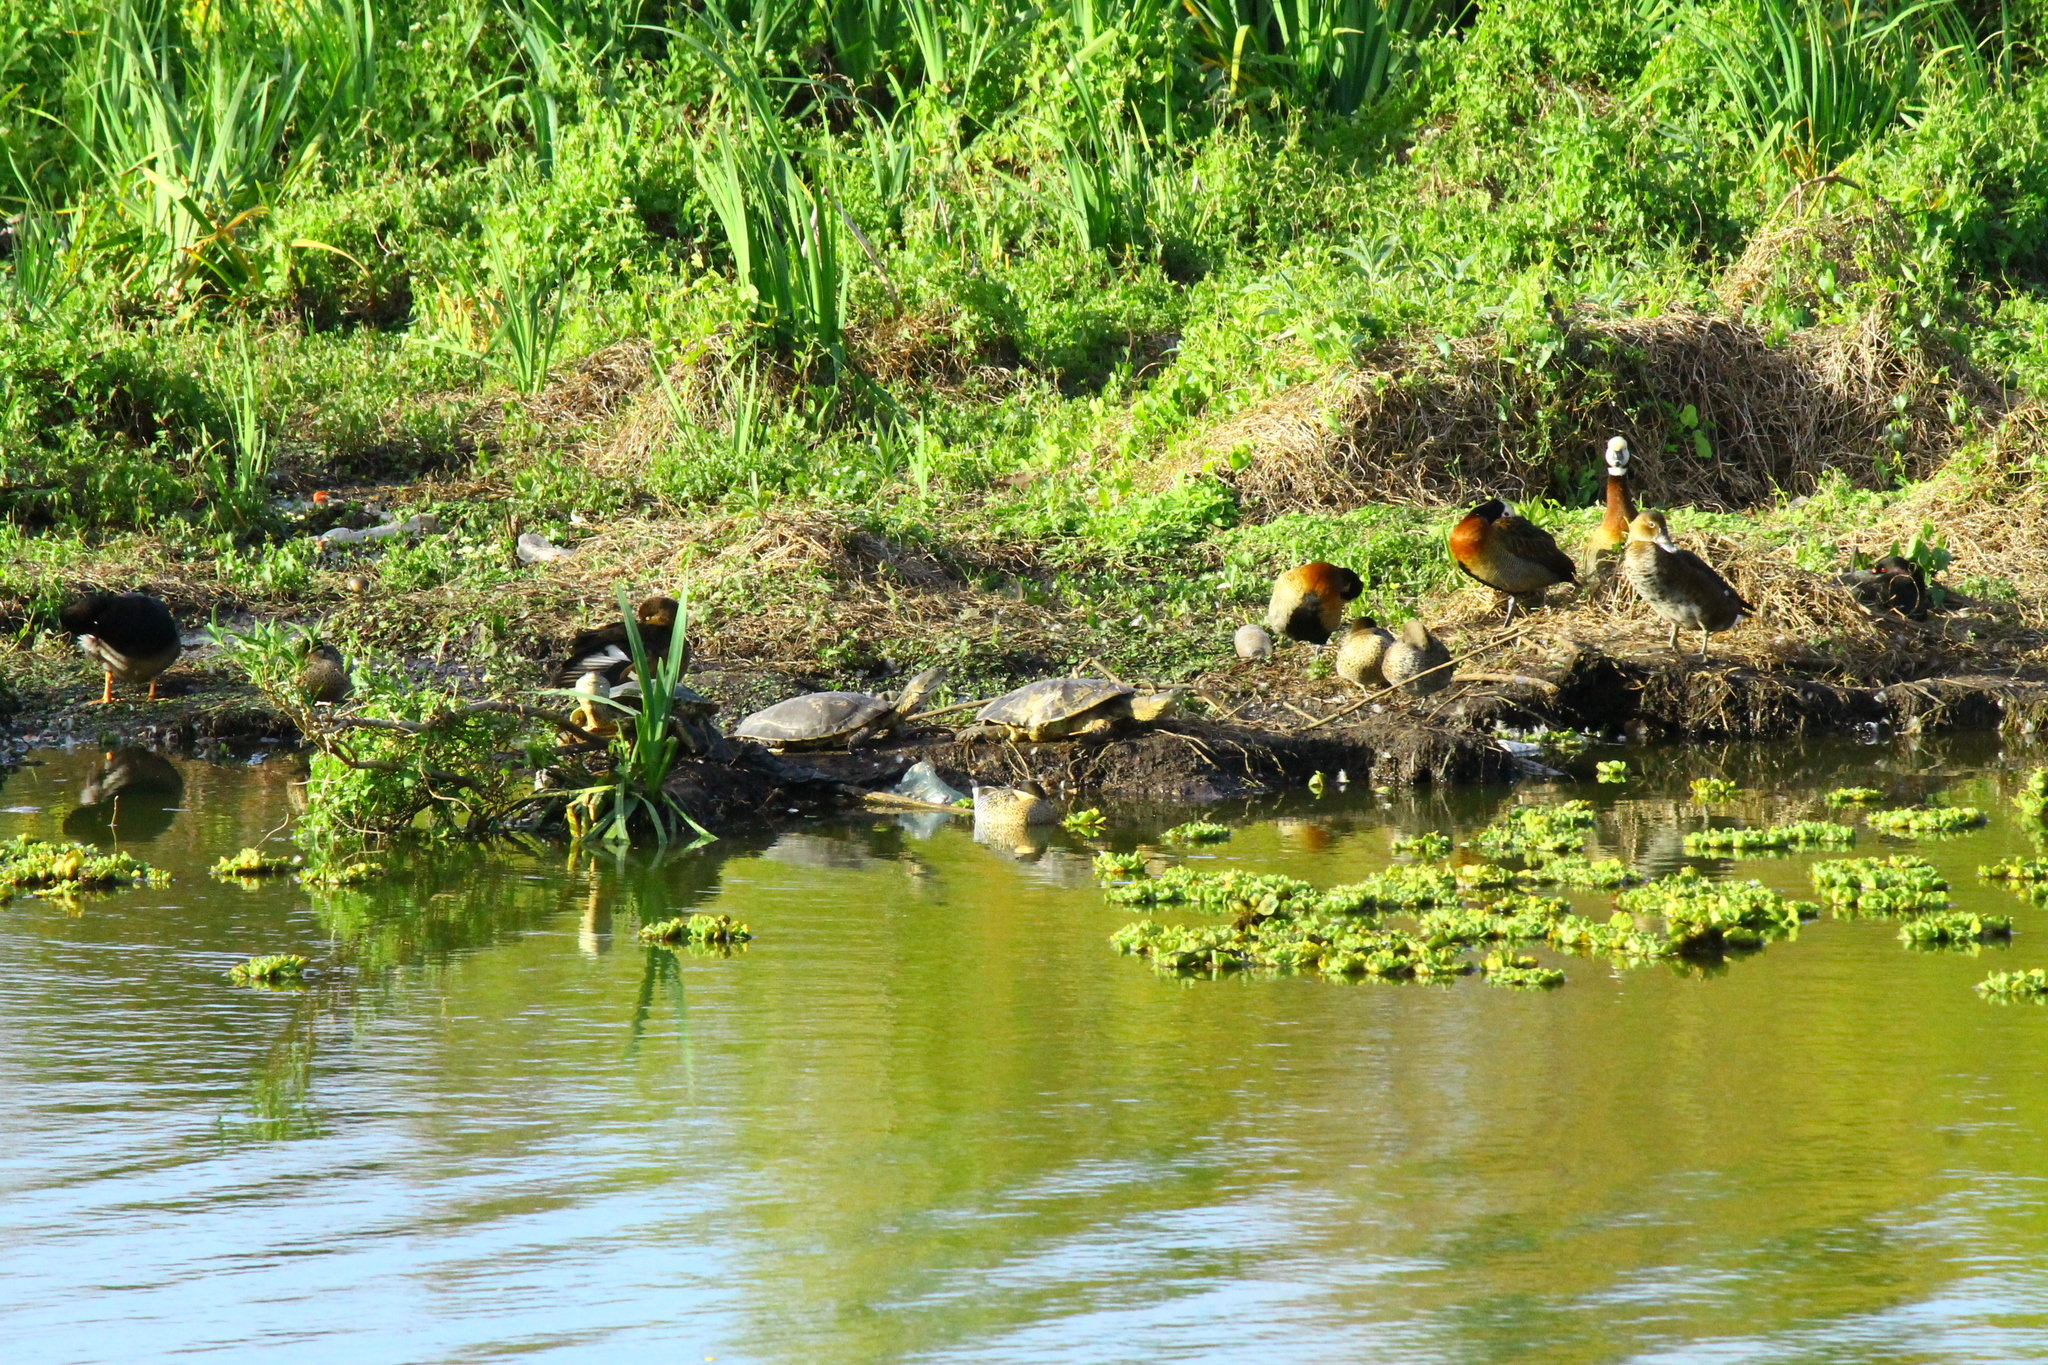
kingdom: Animalia
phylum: Chordata
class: Testudines
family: Chelidae
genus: Phrynops
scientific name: Phrynops hilarii
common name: Side-necked turtle of saint hillaire
